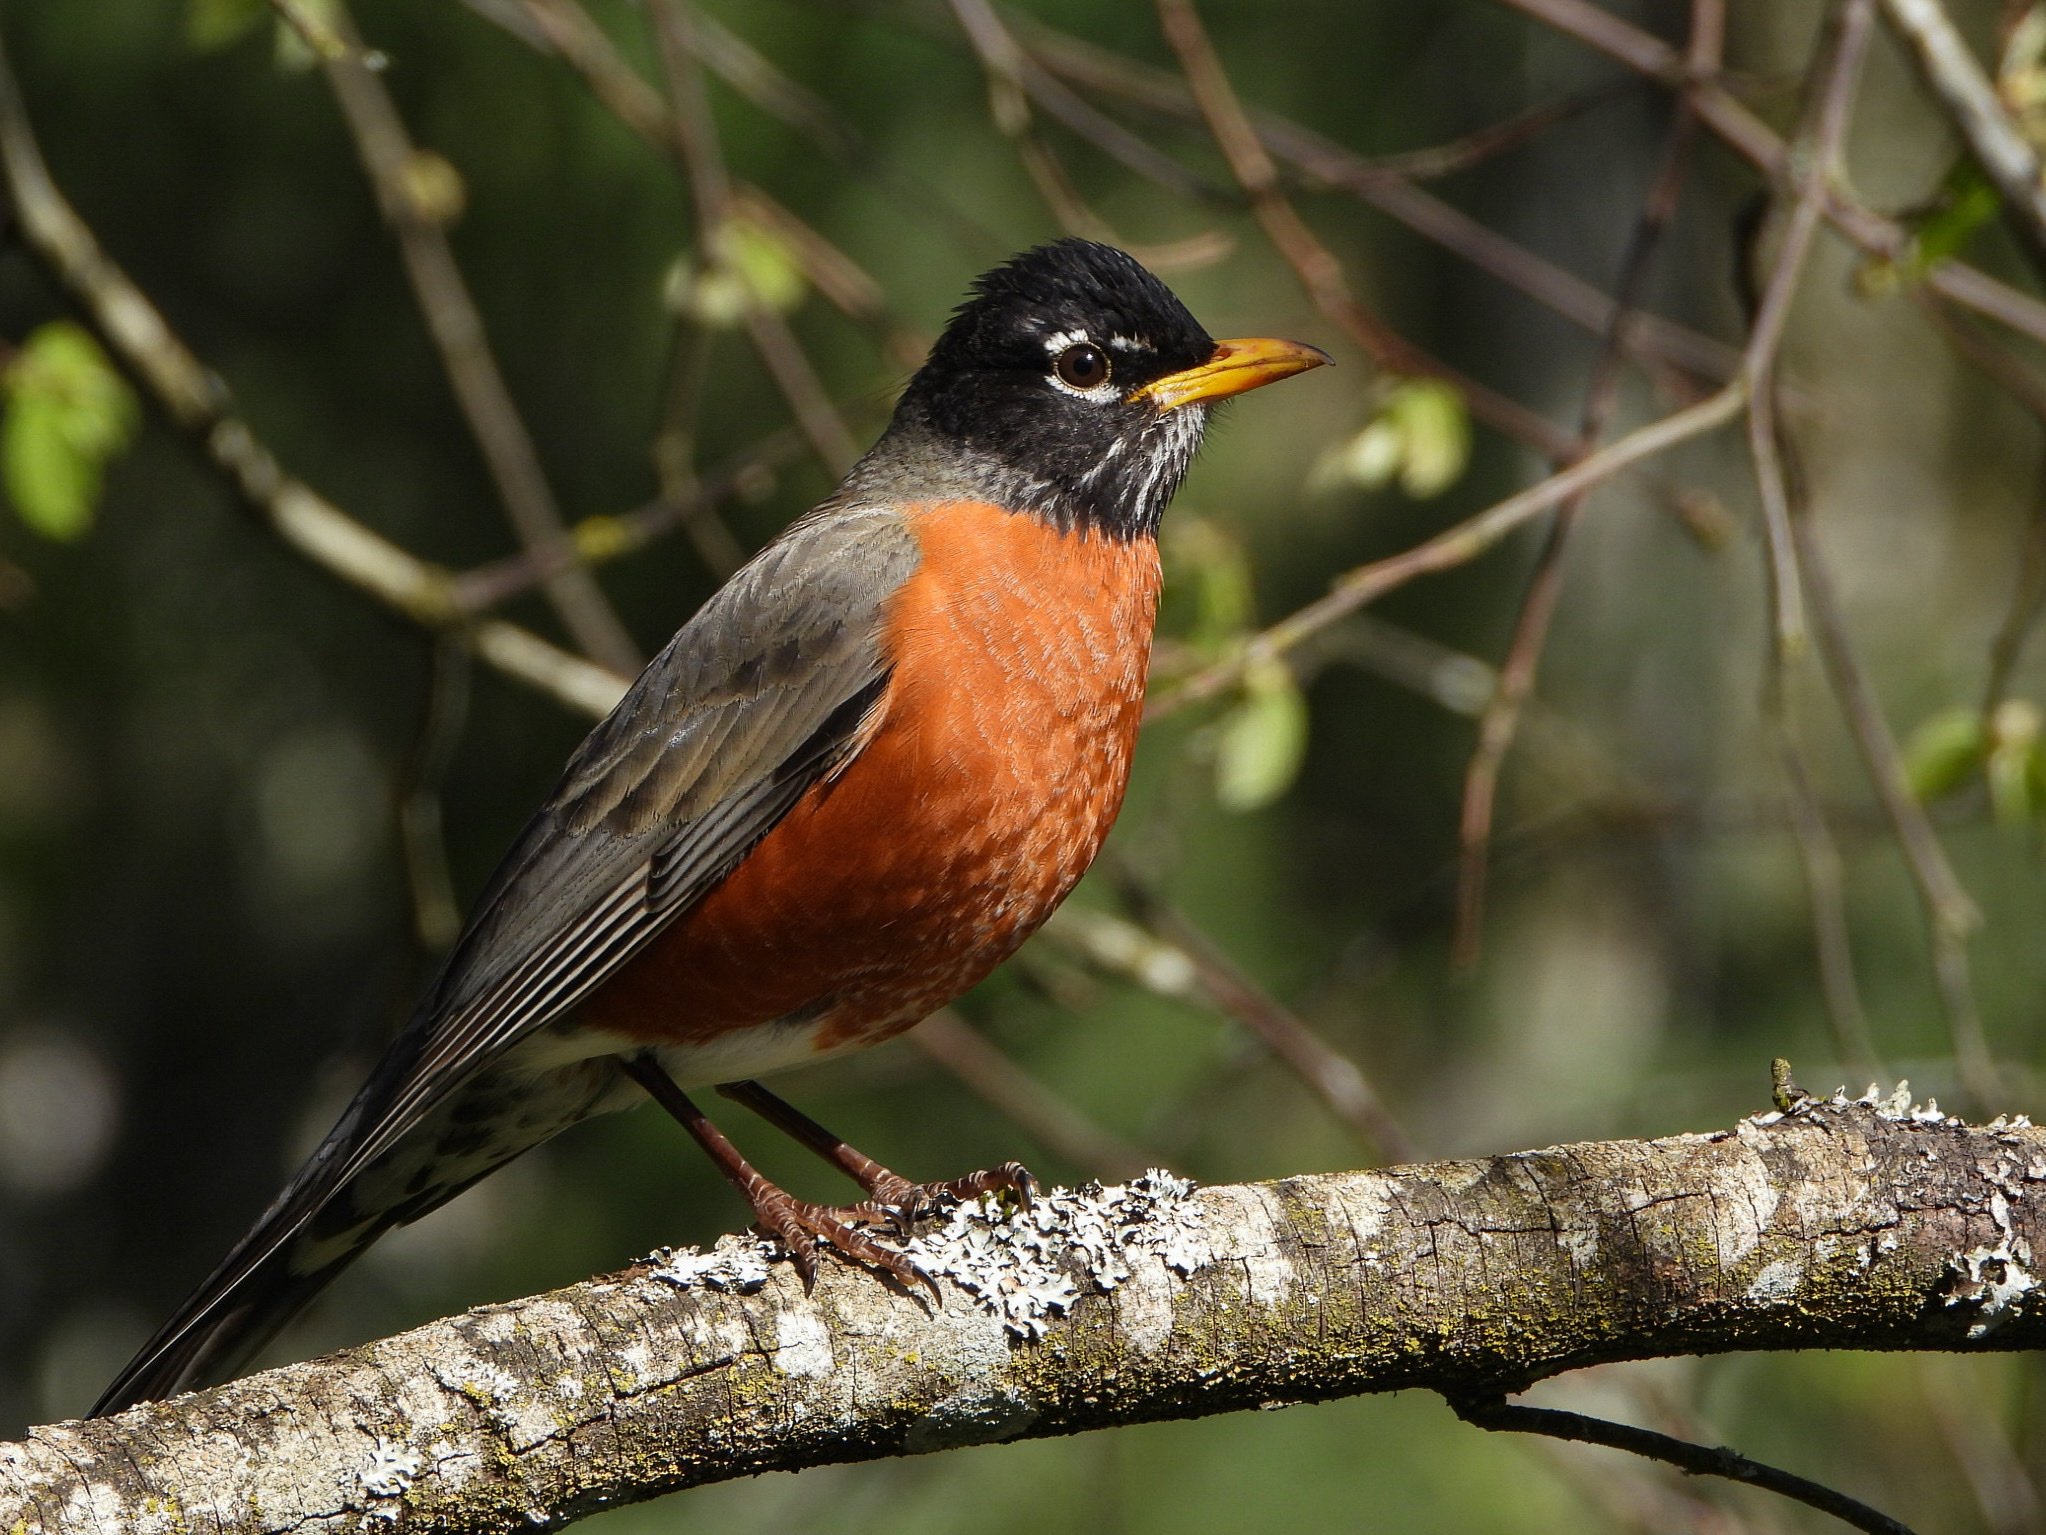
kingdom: Animalia
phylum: Chordata
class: Aves
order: Passeriformes
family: Turdidae
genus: Turdus
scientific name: Turdus migratorius
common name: American robin
